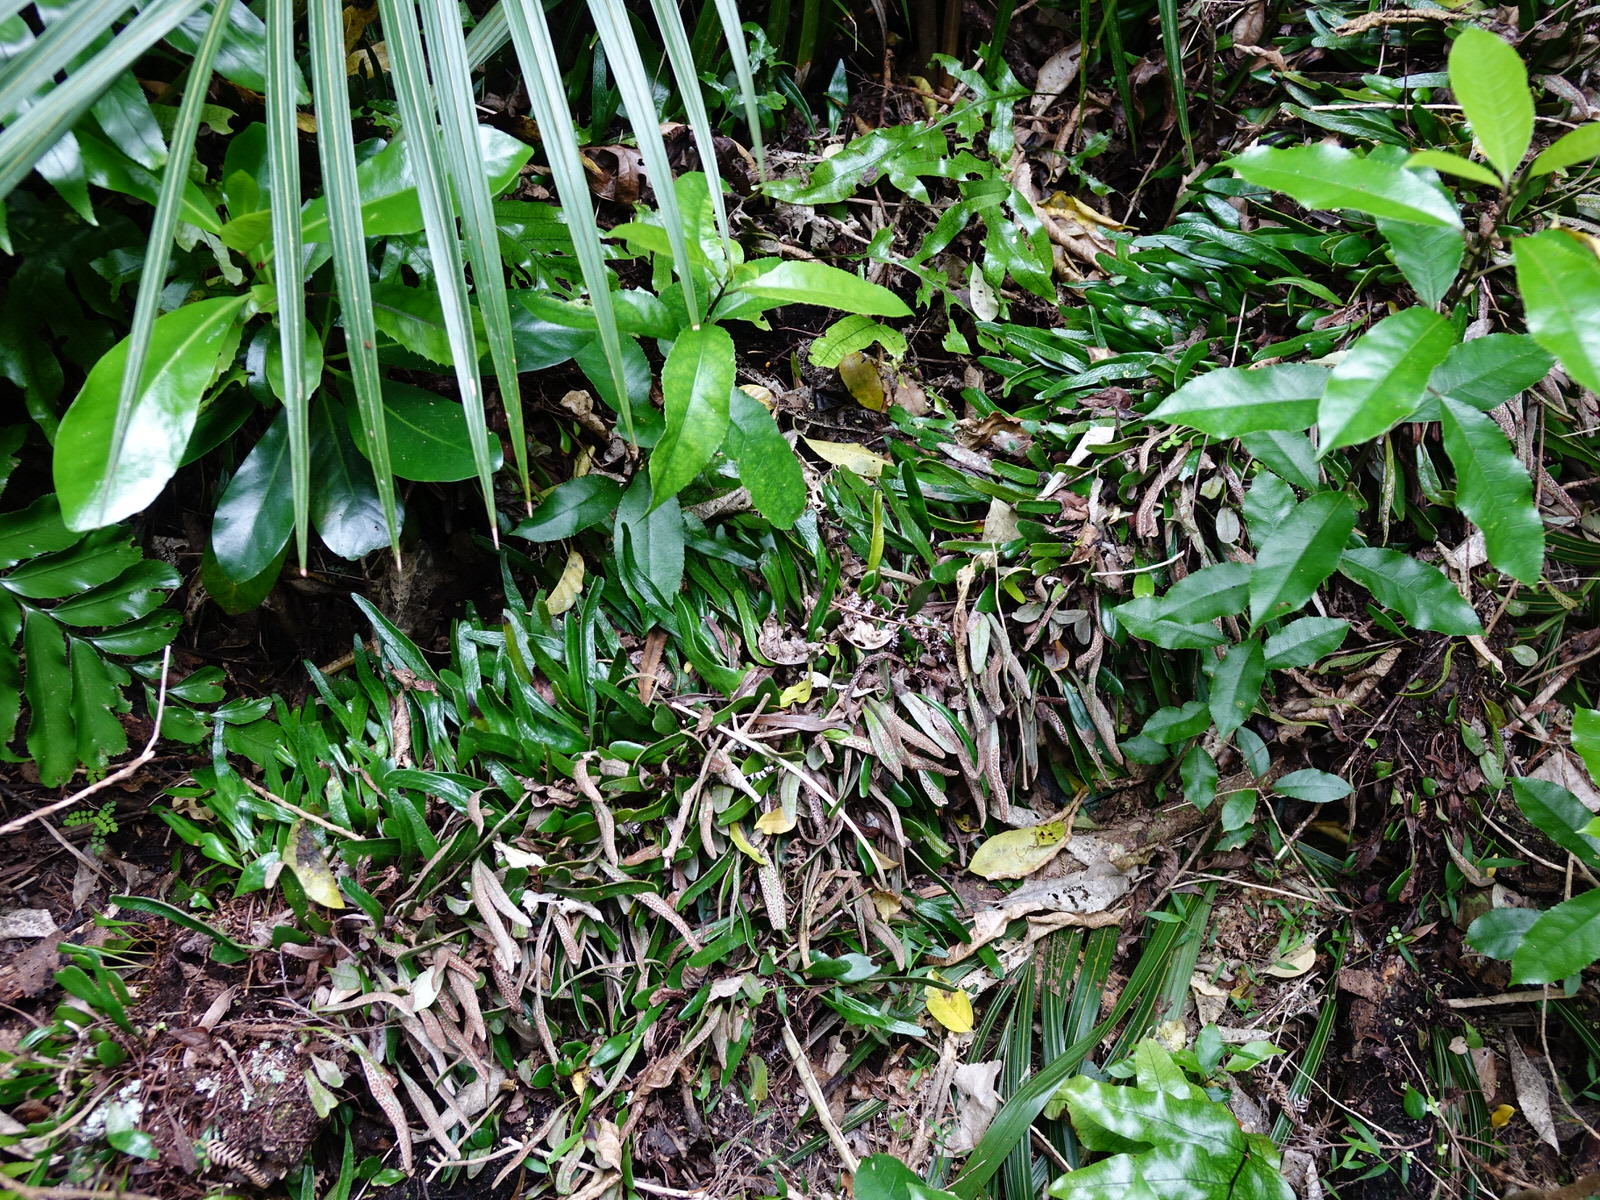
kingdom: Plantae
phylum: Tracheophyta
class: Polypodiopsida
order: Polypodiales
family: Polypodiaceae
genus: Pyrrosia
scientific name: Pyrrosia eleagnifolia
